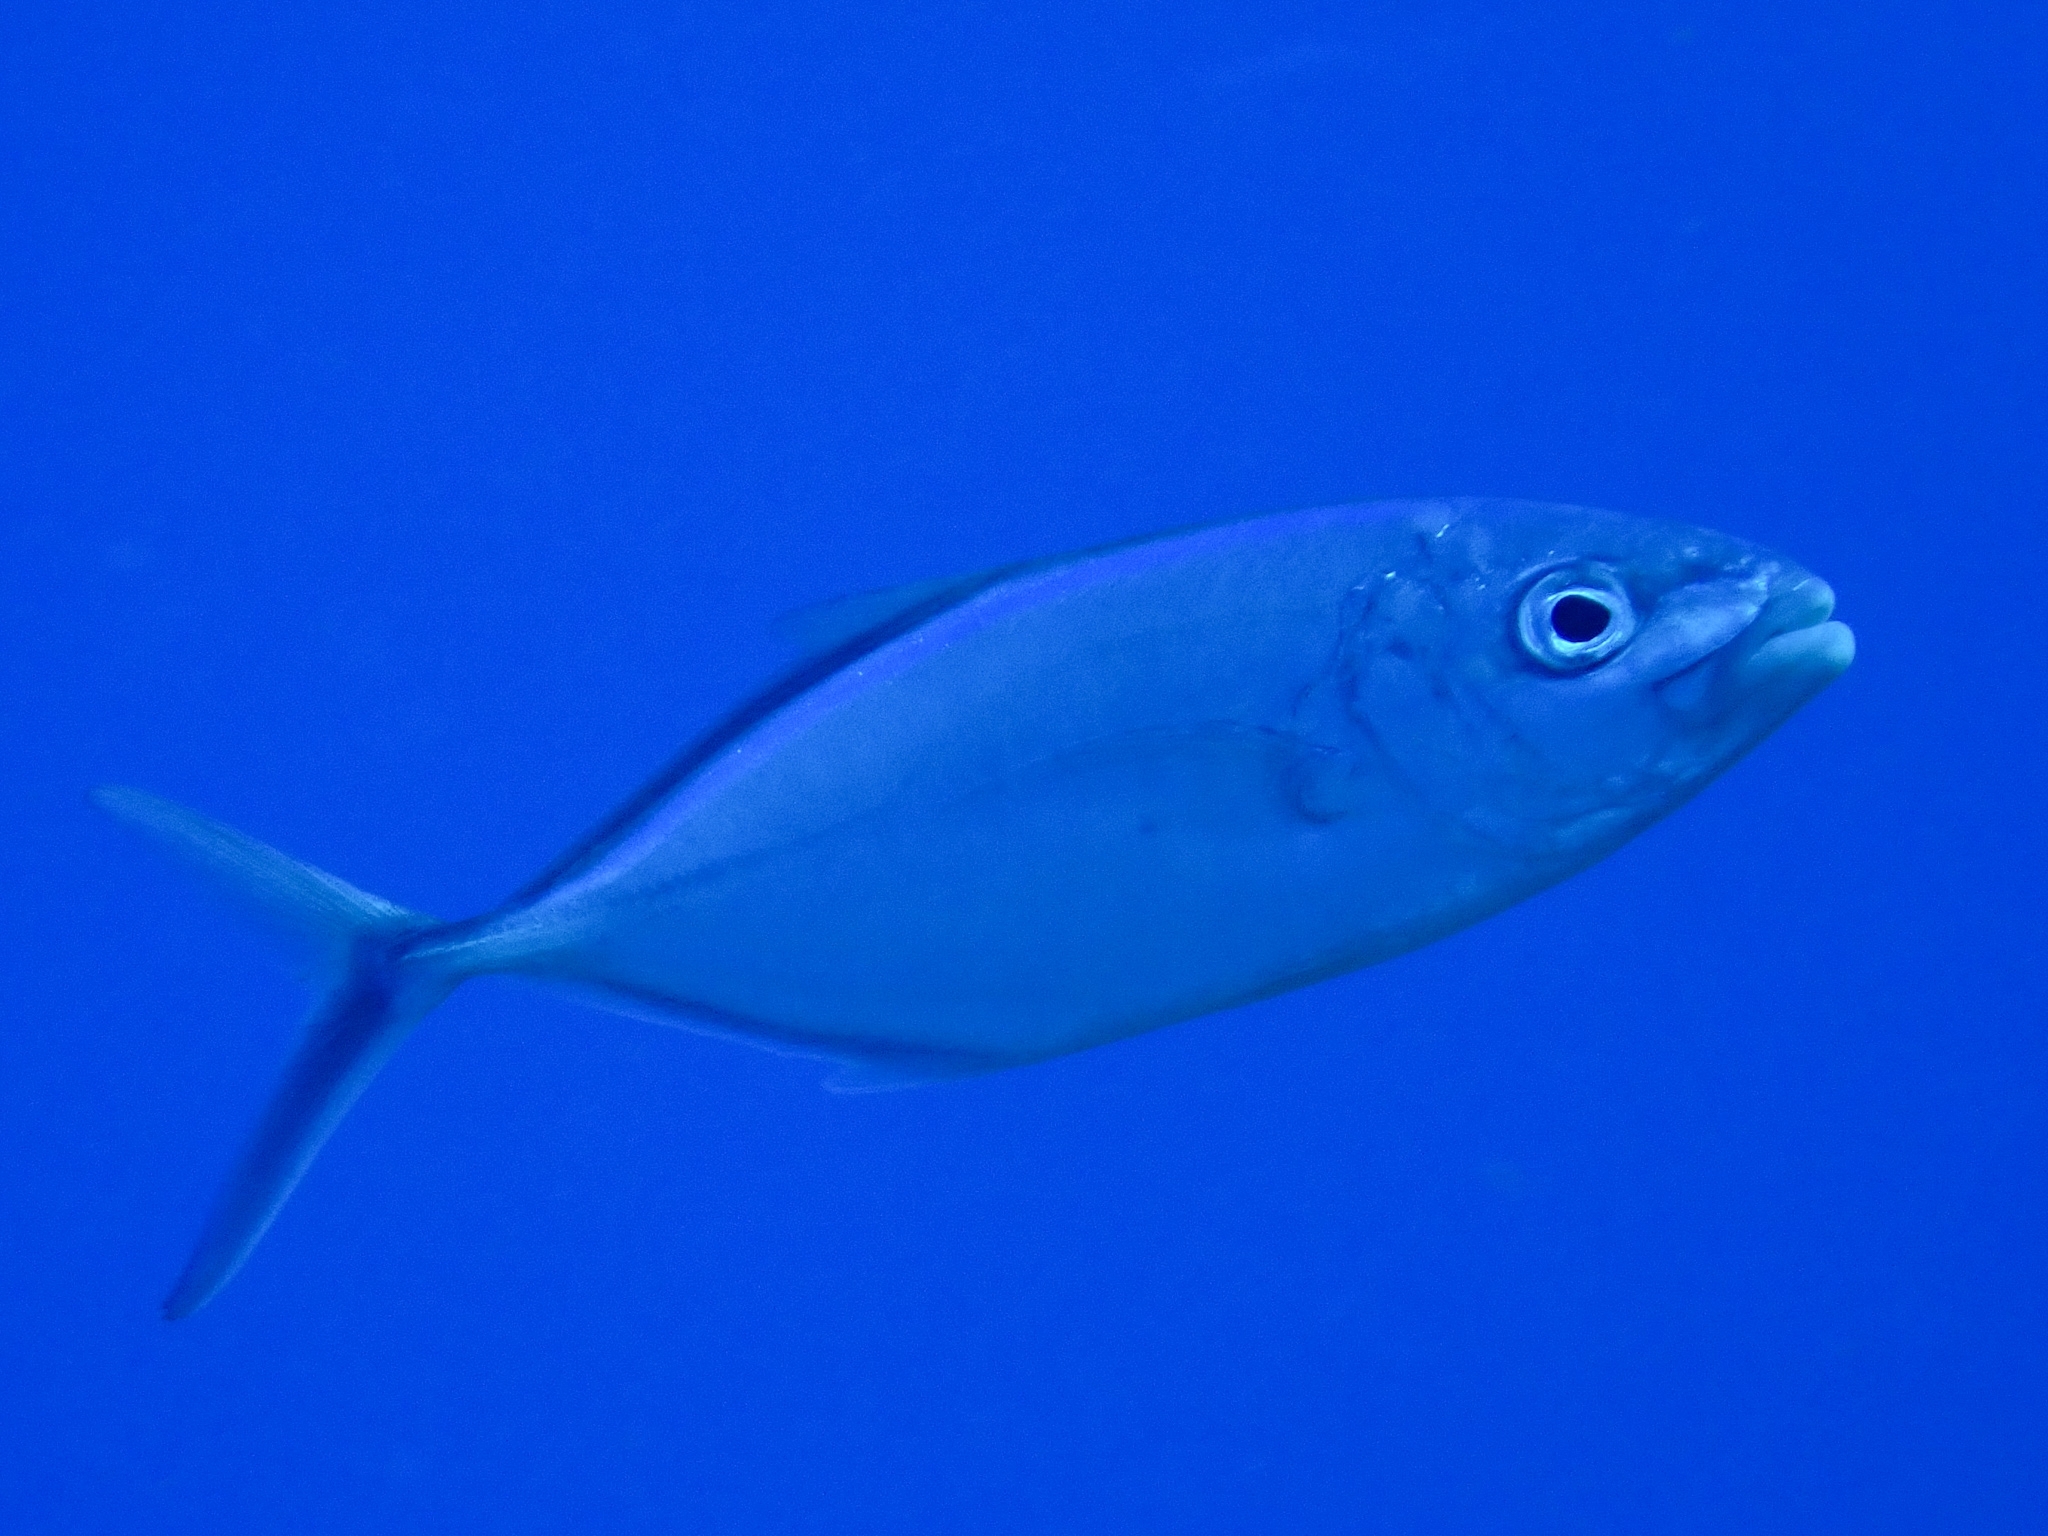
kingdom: Animalia
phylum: Chordata
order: Perciformes
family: Carangidae
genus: Caranx
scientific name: Caranx ruber
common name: Bar jack
